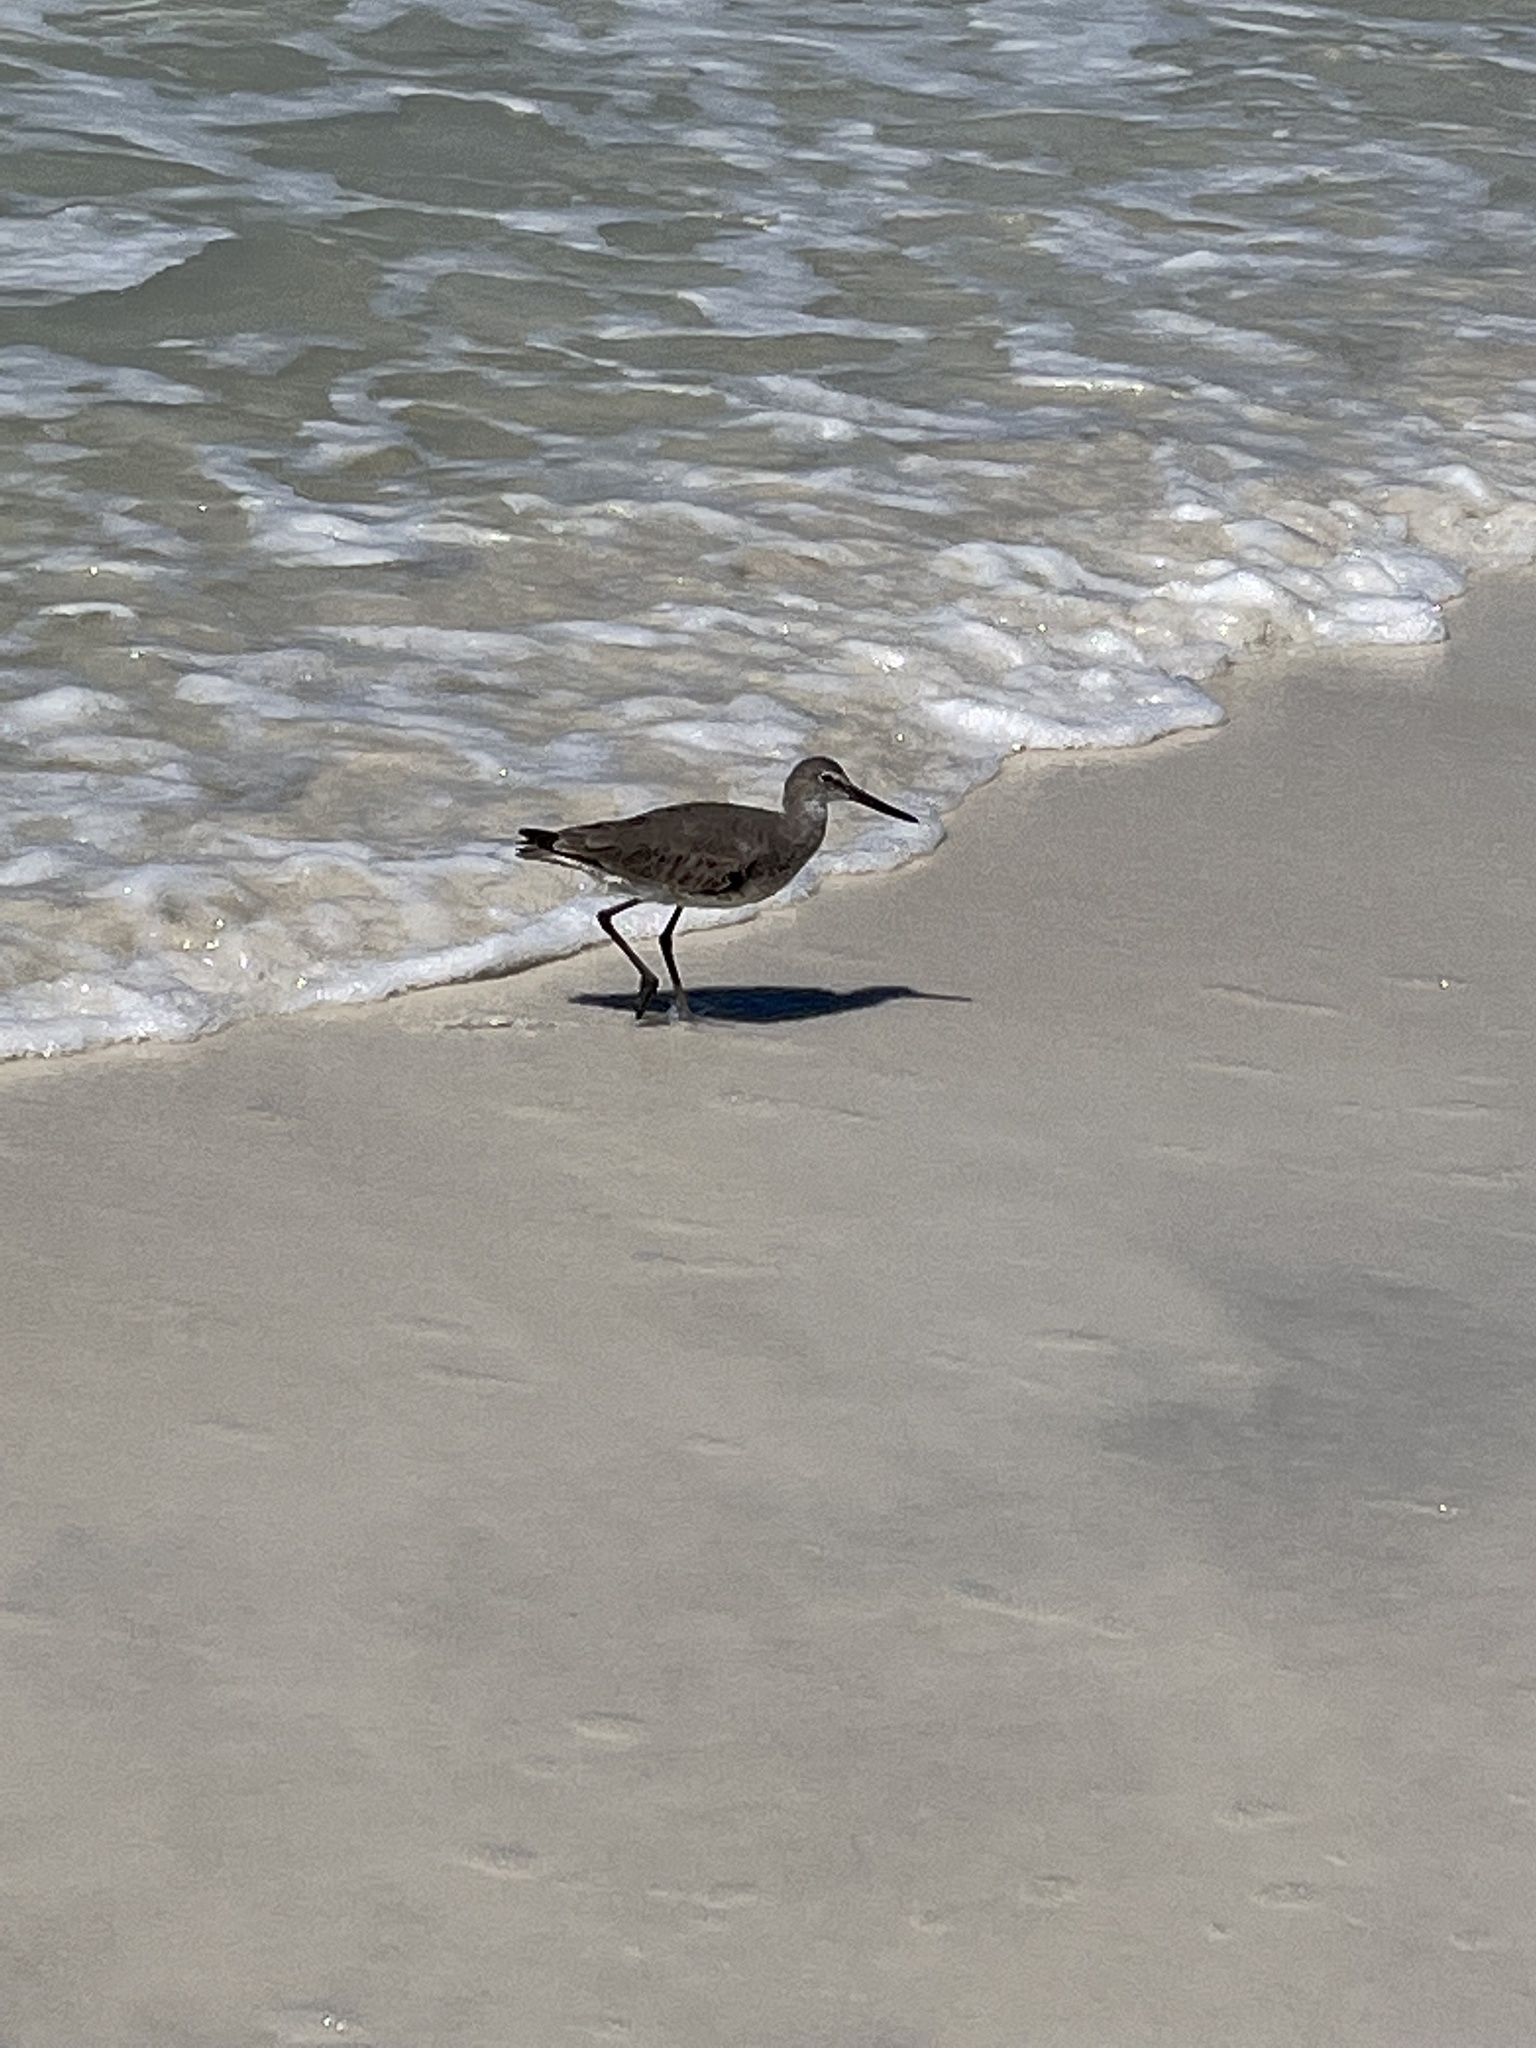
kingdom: Animalia
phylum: Chordata
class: Aves
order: Charadriiformes
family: Scolopacidae
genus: Tringa
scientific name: Tringa semipalmata
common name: Willet
